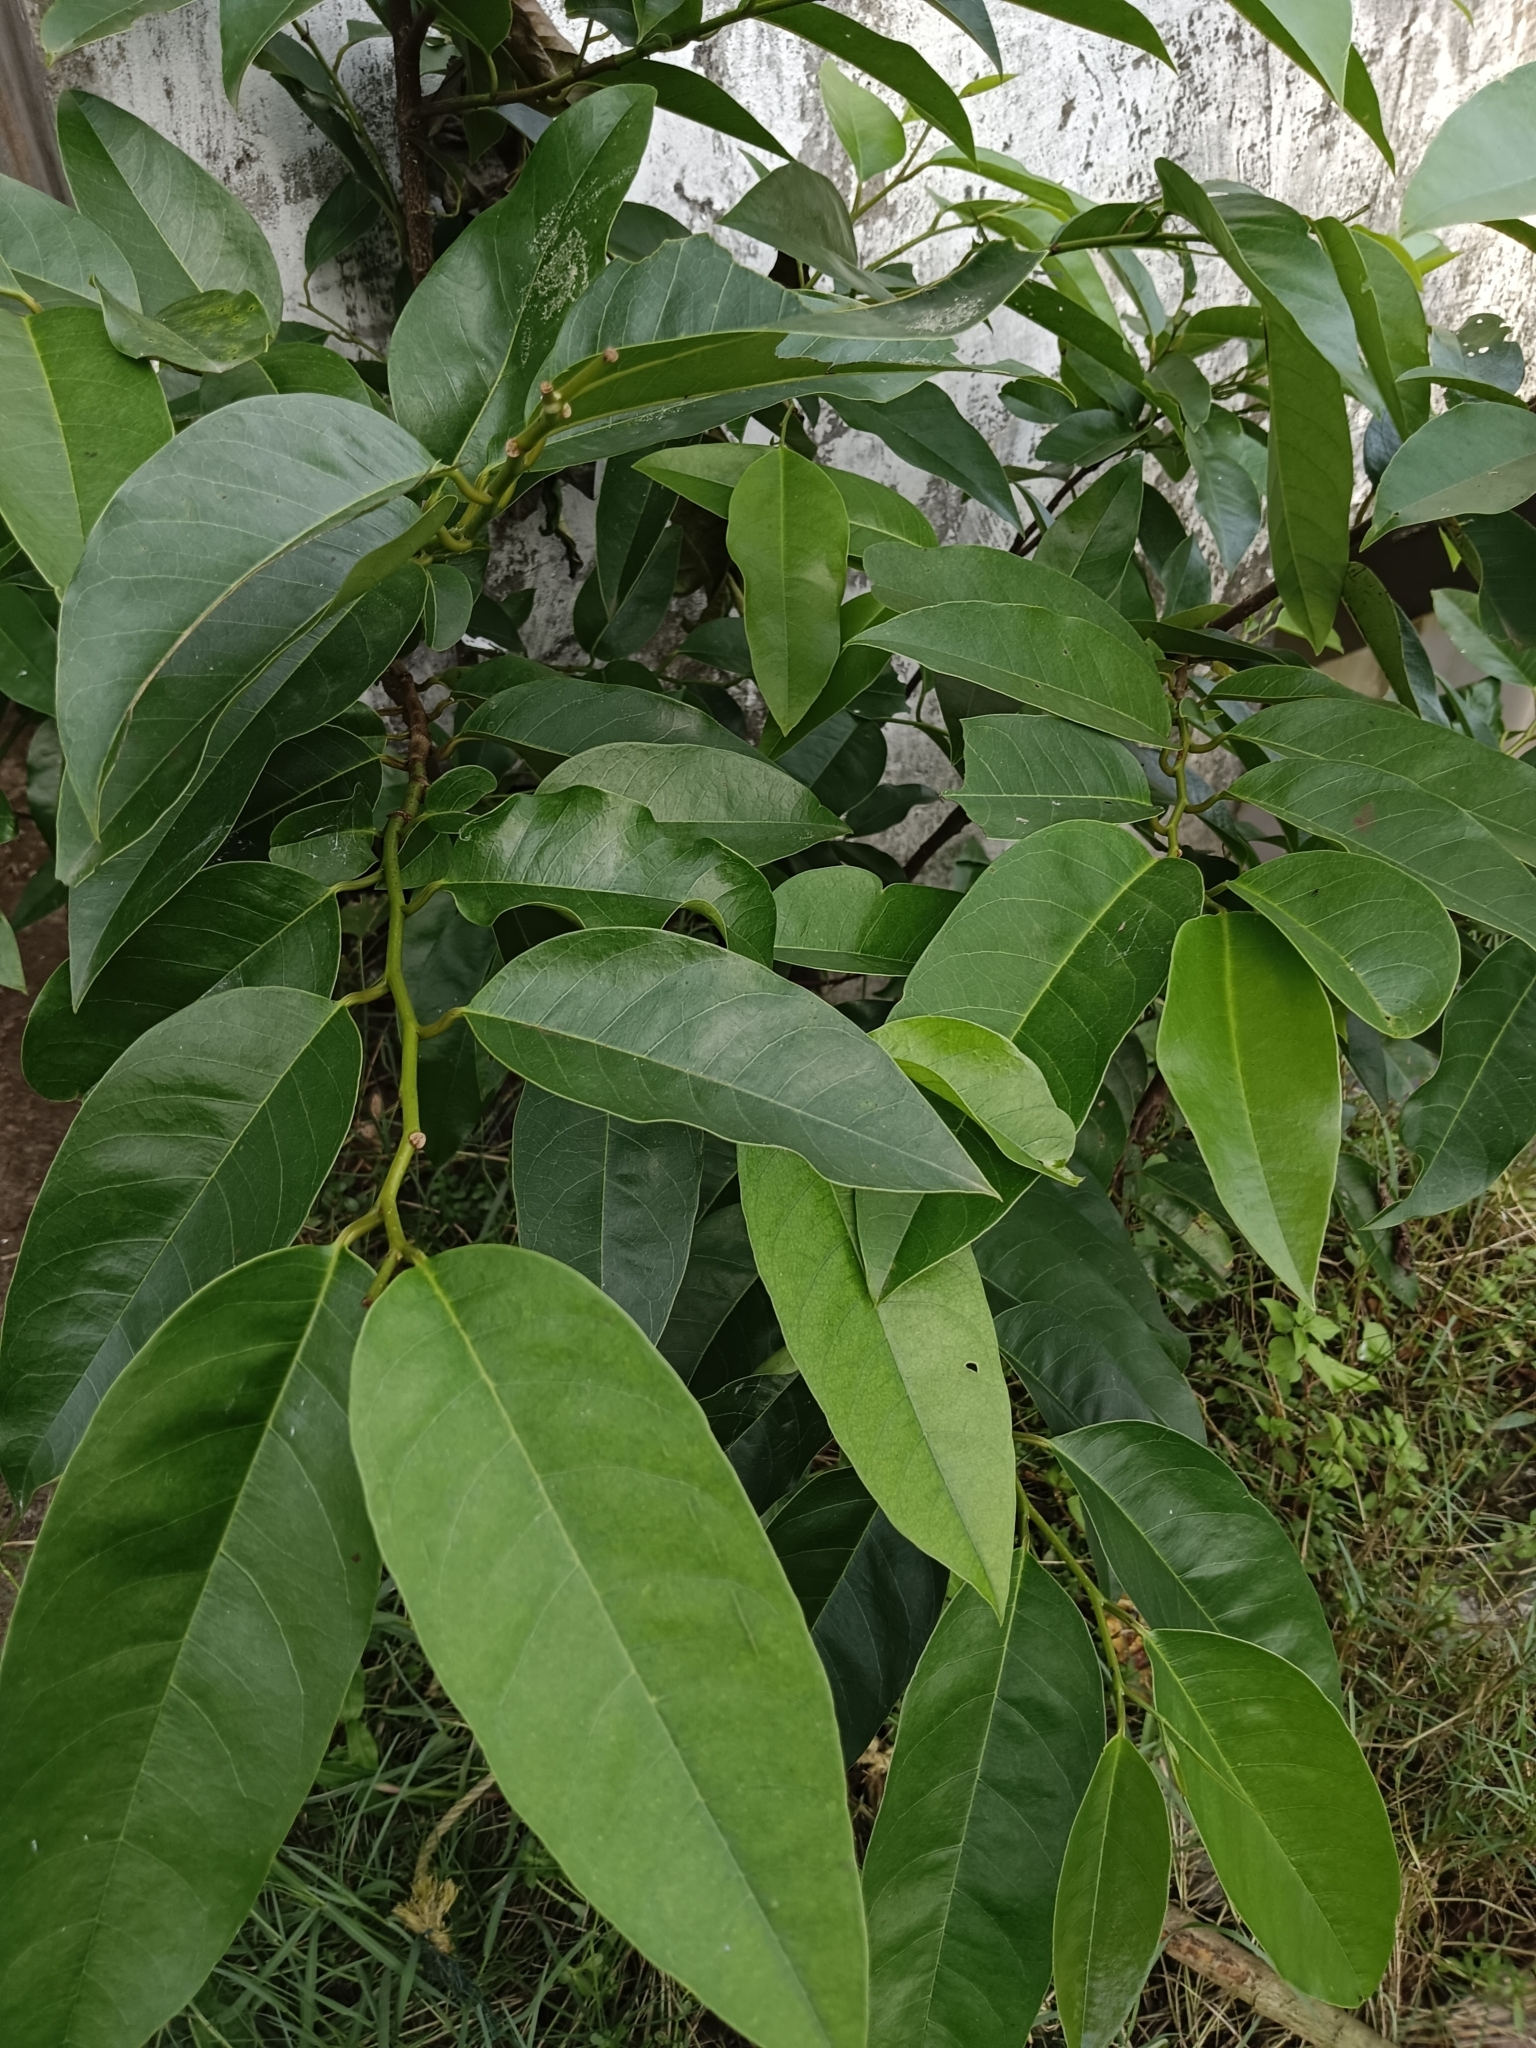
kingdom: Plantae
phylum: Tracheophyta
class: Magnoliopsida
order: Magnoliales
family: Annonaceae
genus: Annona
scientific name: Annona glabra
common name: Monkey apple
